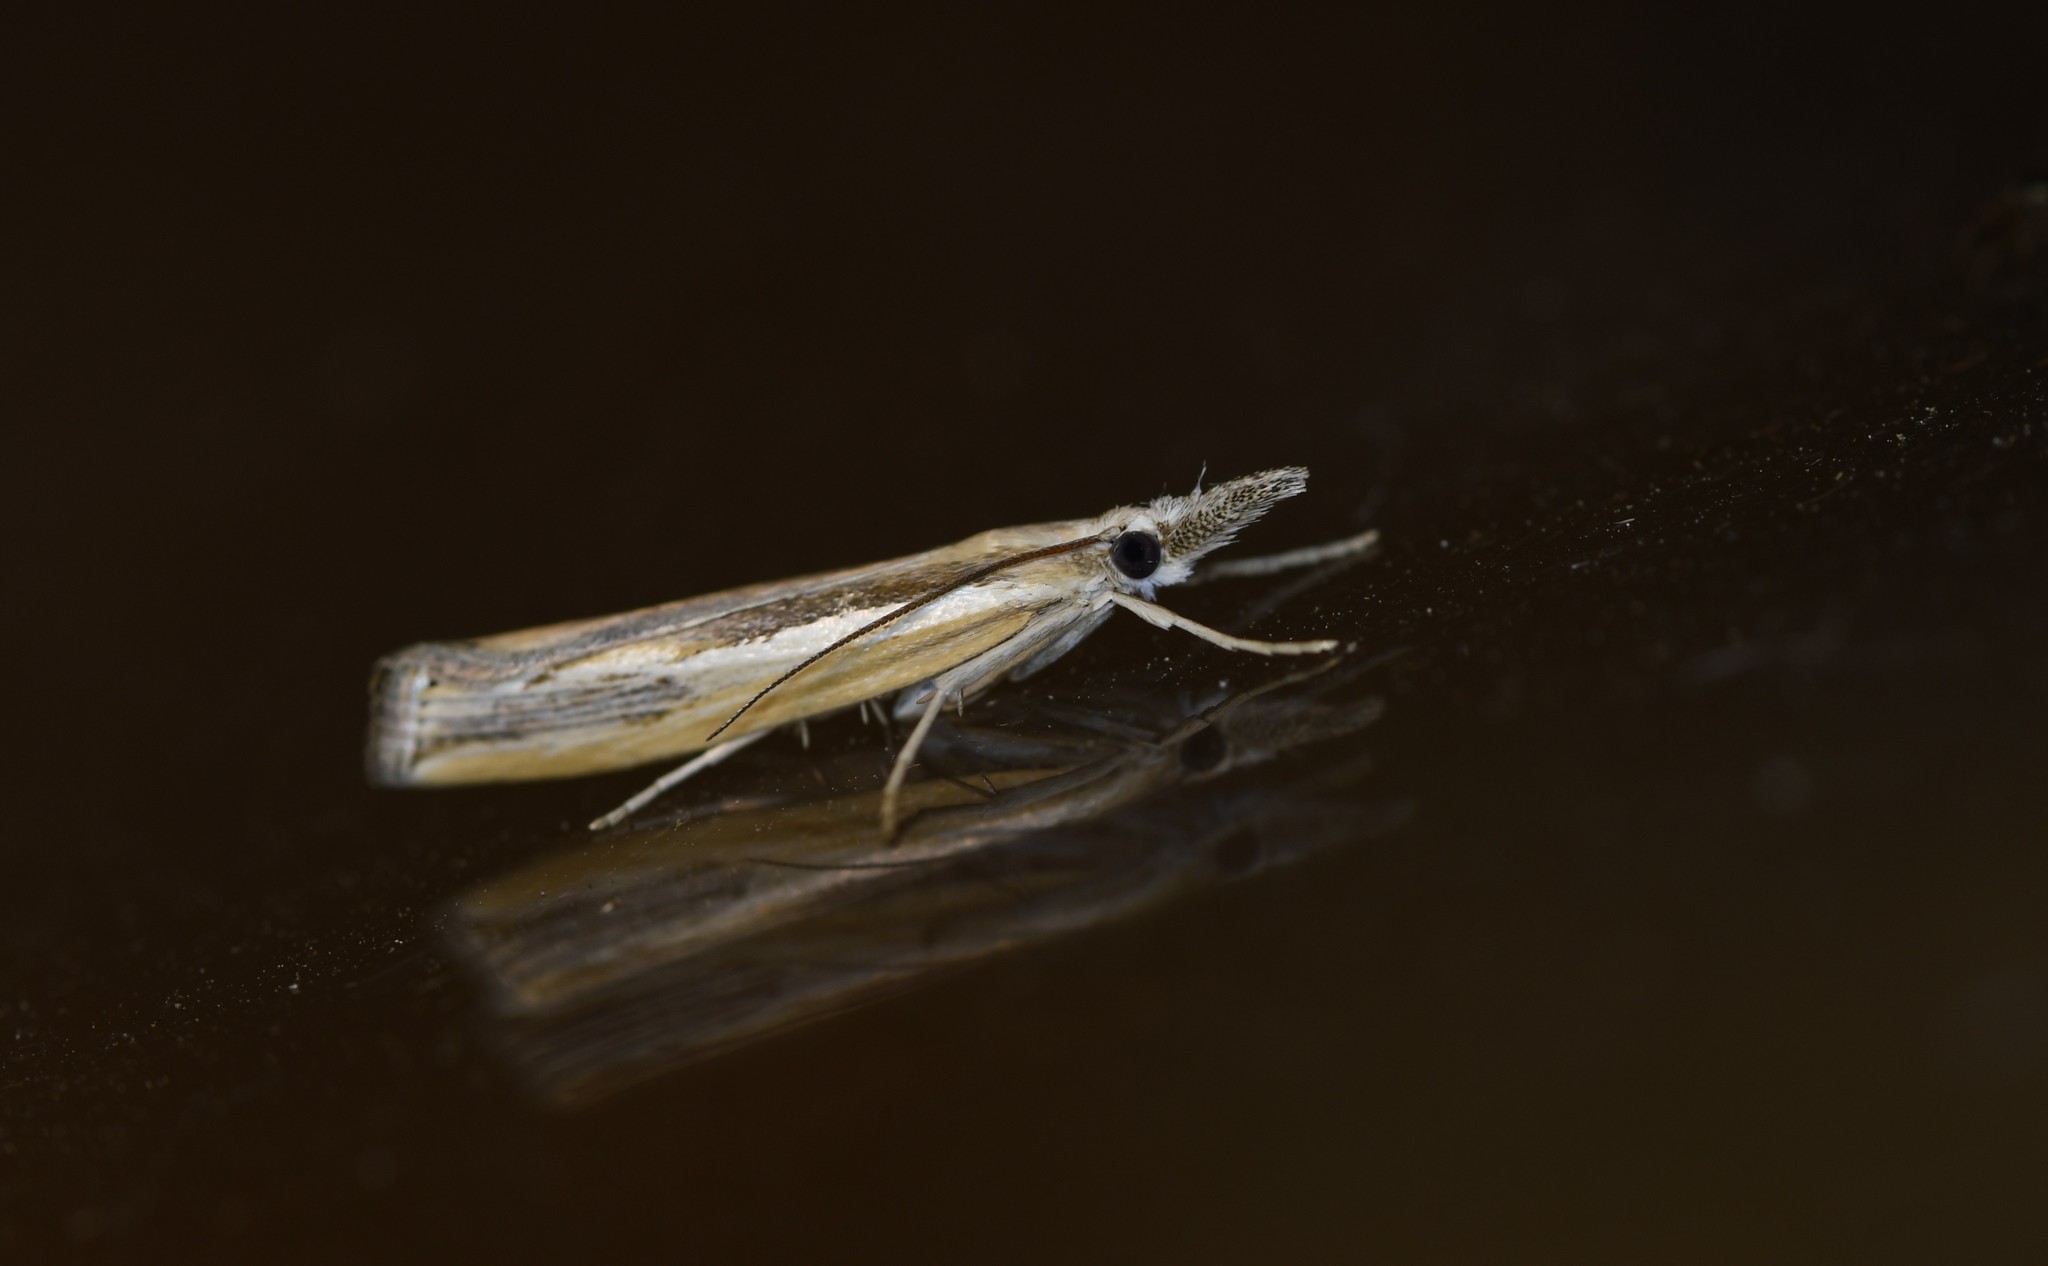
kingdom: Animalia
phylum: Arthropoda
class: Insecta
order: Lepidoptera
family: Crambidae
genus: Agriphila
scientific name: Agriphila trabeatellus
